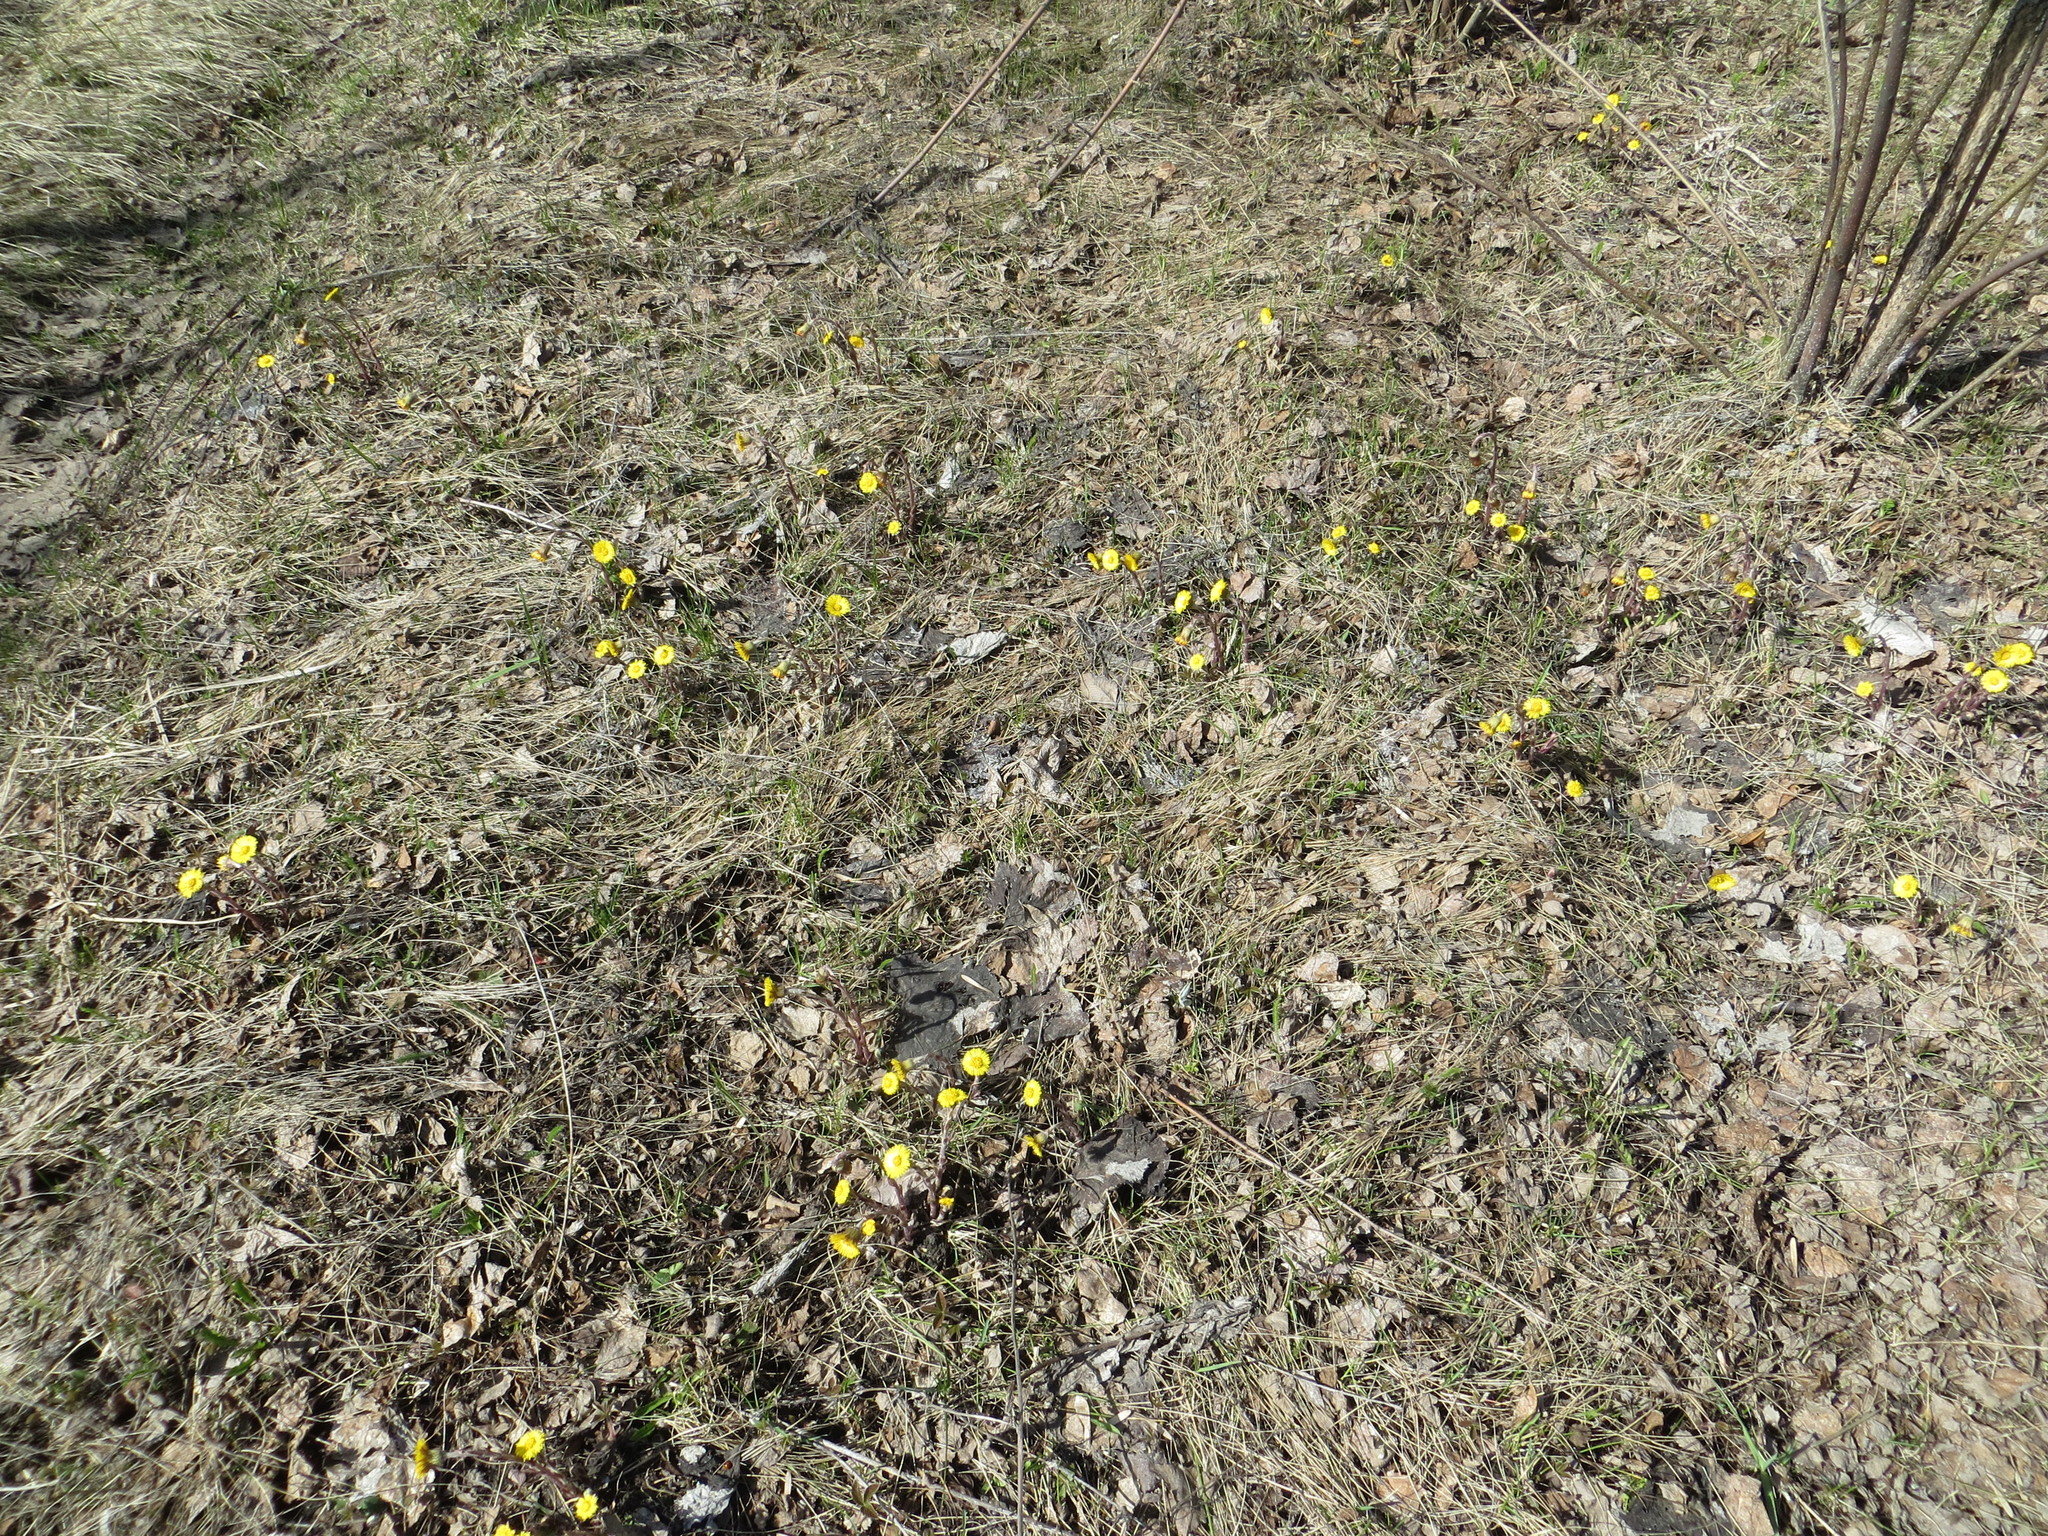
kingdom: Plantae
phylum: Tracheophyta
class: Magnoliopsida
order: Asterales
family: Asteraceae
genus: Tussilago
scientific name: Tussilago farfara
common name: Coltsfoot
